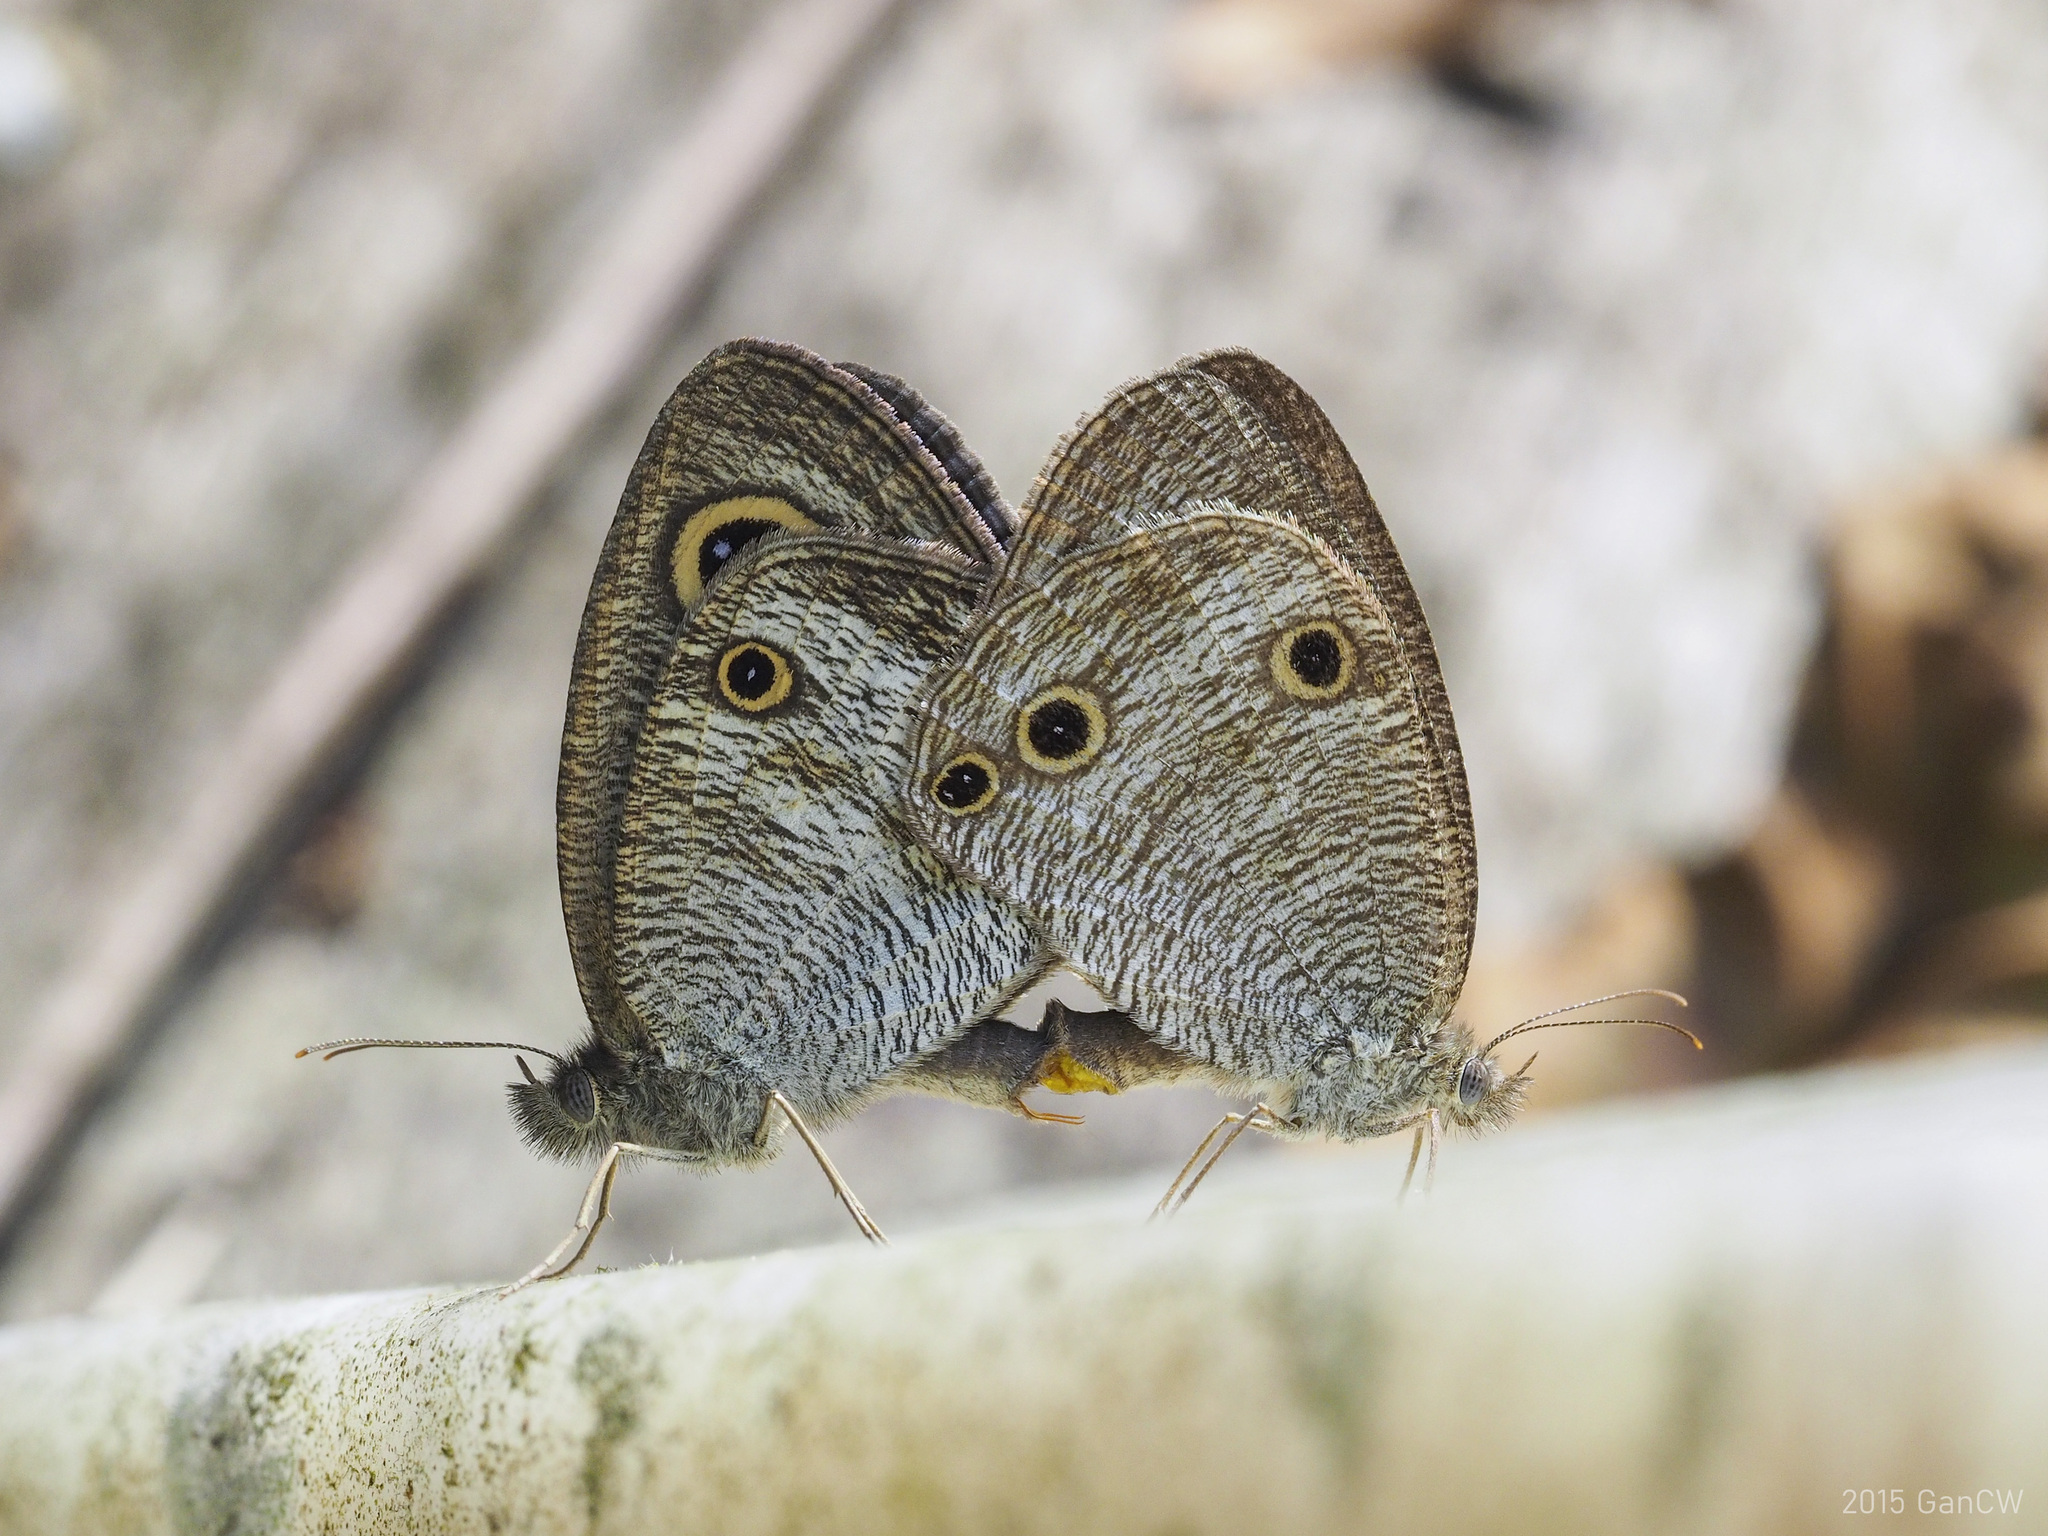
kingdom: Animalia
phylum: Arthropoda
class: Insecta
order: Lepidoptera
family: Nymphalidae
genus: Ypthima
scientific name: Ypthima pandocus
